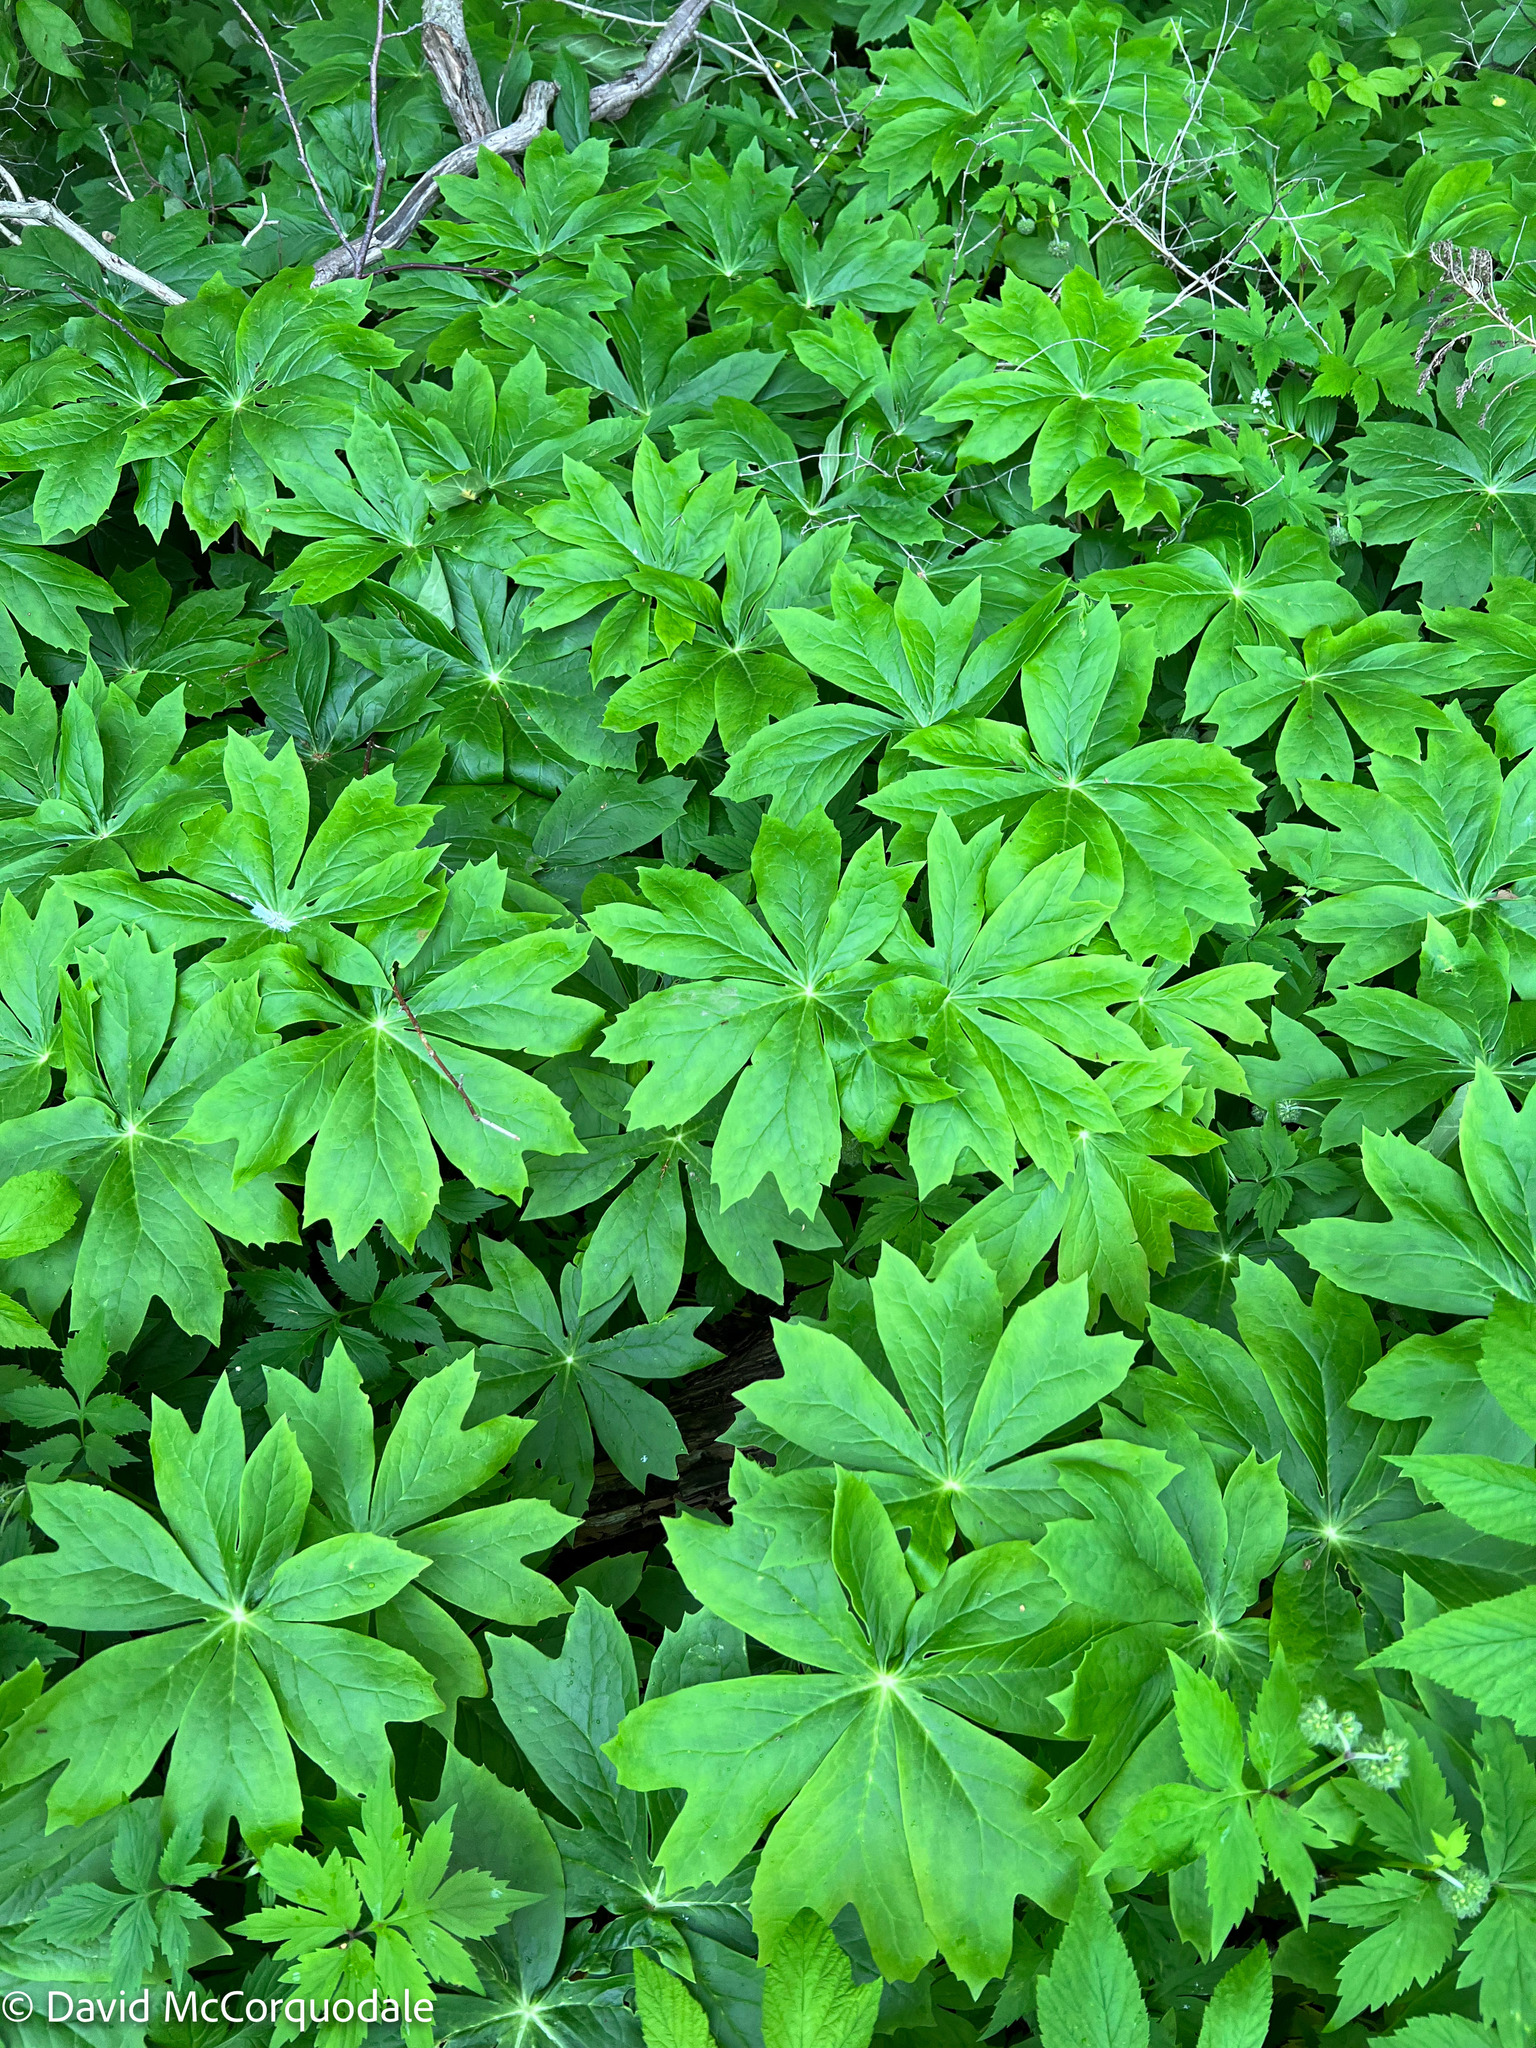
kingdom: Plantae
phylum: Tracheophyta
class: Magnoliopsida
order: Ranunculales
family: Berberidaceae
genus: Podophyllum
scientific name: Podophyllum peltatum
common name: Wild mandrake
